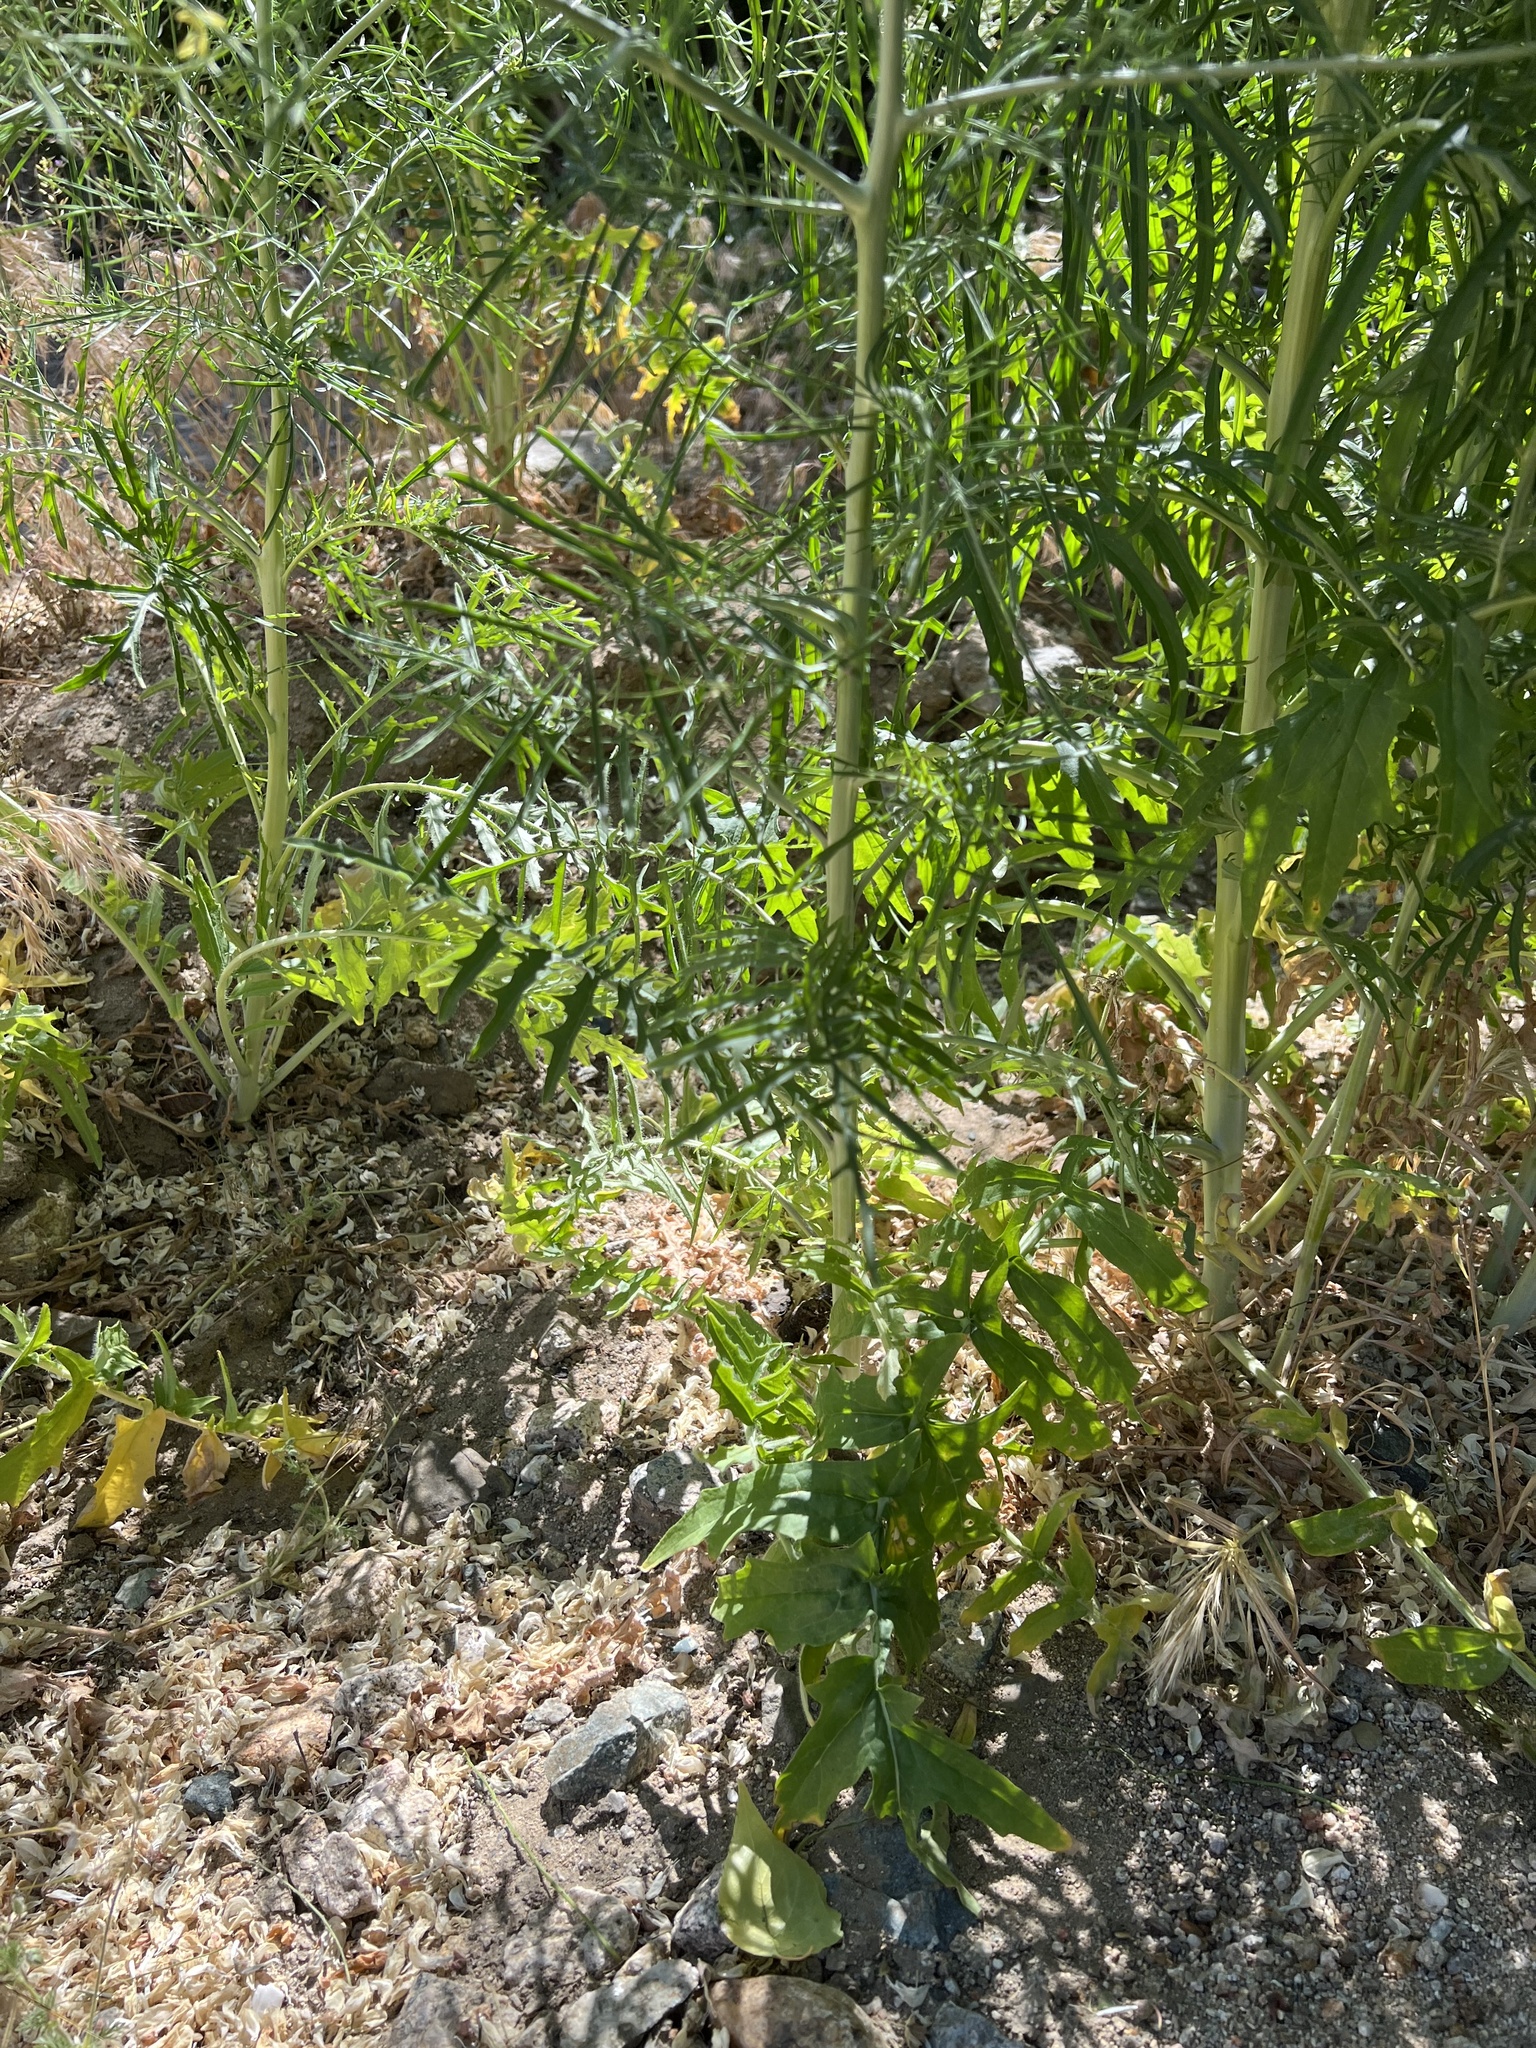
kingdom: Plantae
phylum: Tracheophyta
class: Magnoliopsida
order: Brassicales
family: Brassicaceae
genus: Sisymbrium
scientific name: Sisymbrium altissimum
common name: Tall rocket
